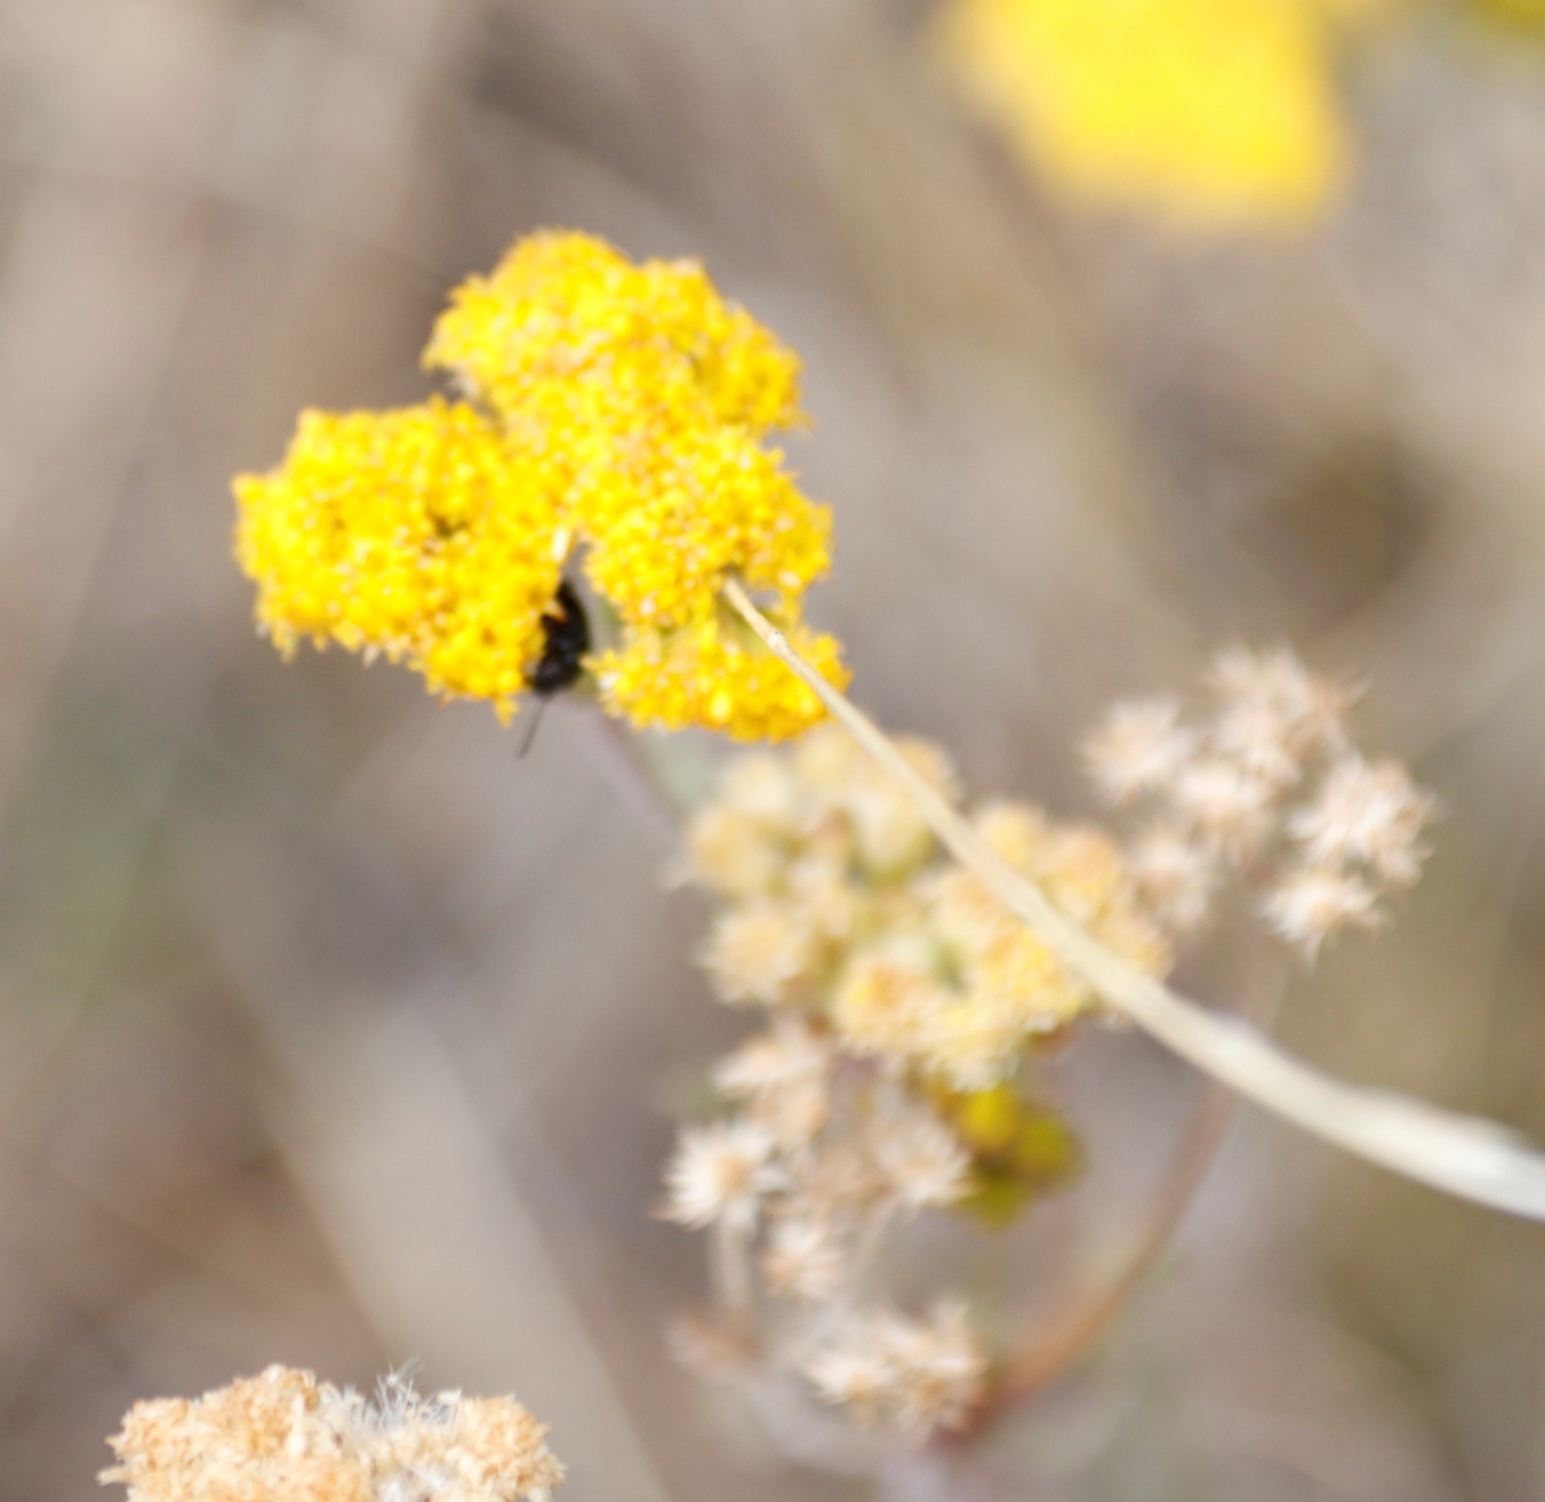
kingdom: Animalia
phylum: Arthropoda
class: Insecta
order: Coleoptera
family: Chrysomelidae
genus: Gastrida
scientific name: Gastrida
